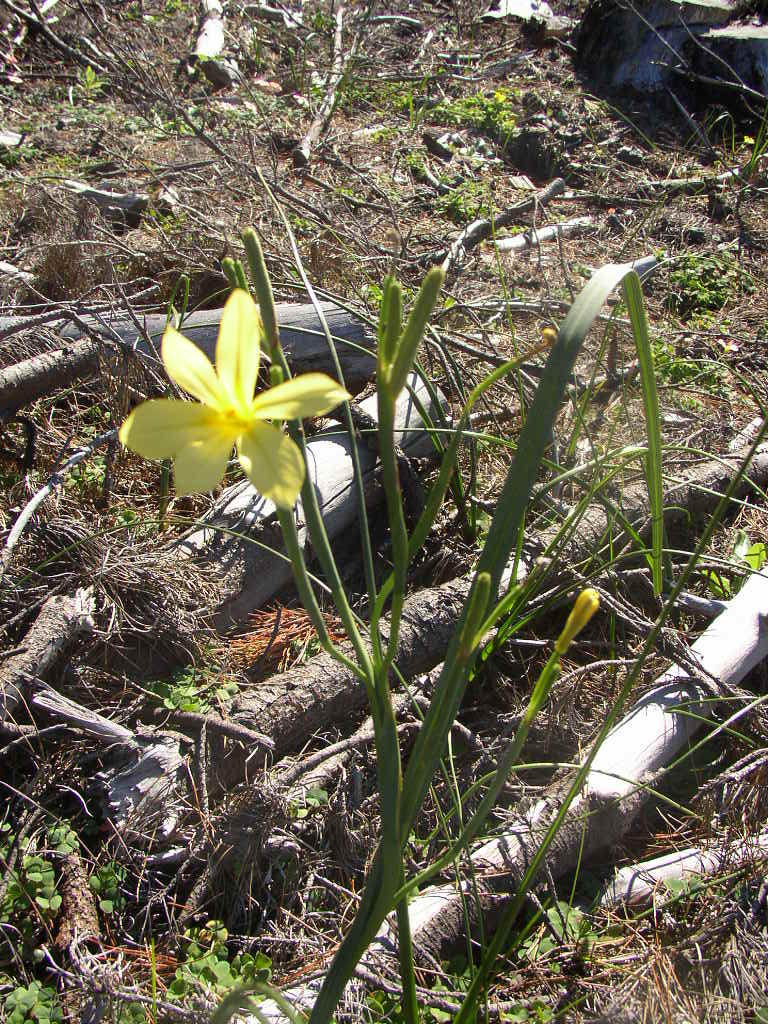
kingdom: Plantae
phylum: Tracheophyta
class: Liliopsida
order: Asparagales
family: Iridaceae
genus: Moraea
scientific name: Moraea collina
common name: Cape-tulip
